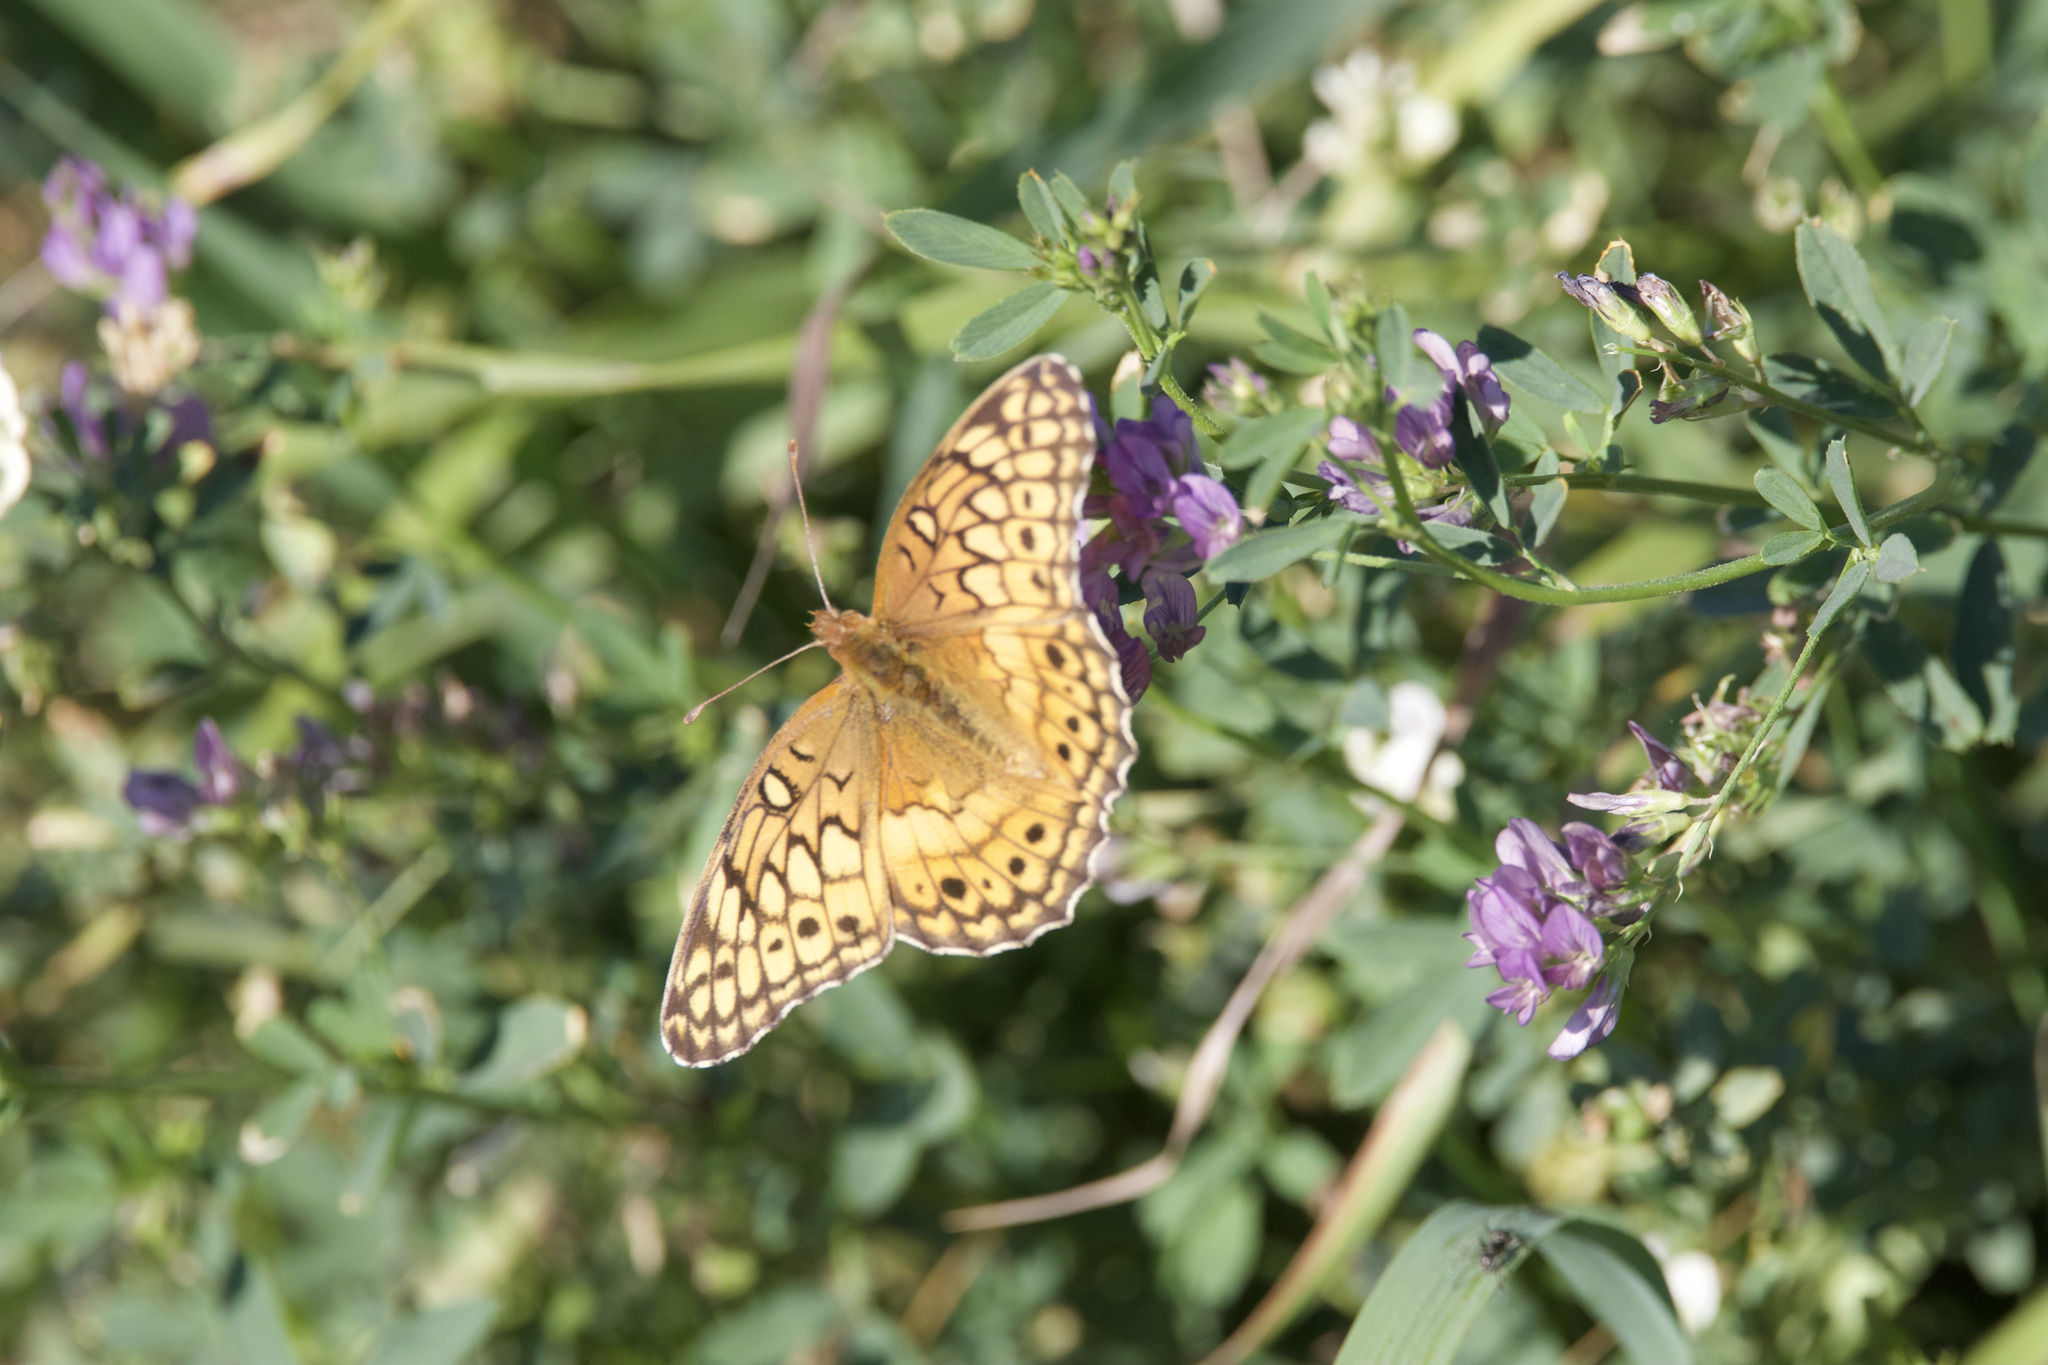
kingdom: Animalia
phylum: Arthropoda
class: Insecta
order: Lepidoptera
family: Nymphalidae
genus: Euptoieta
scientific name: Euptoieta claudia
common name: Variegated fritillary
